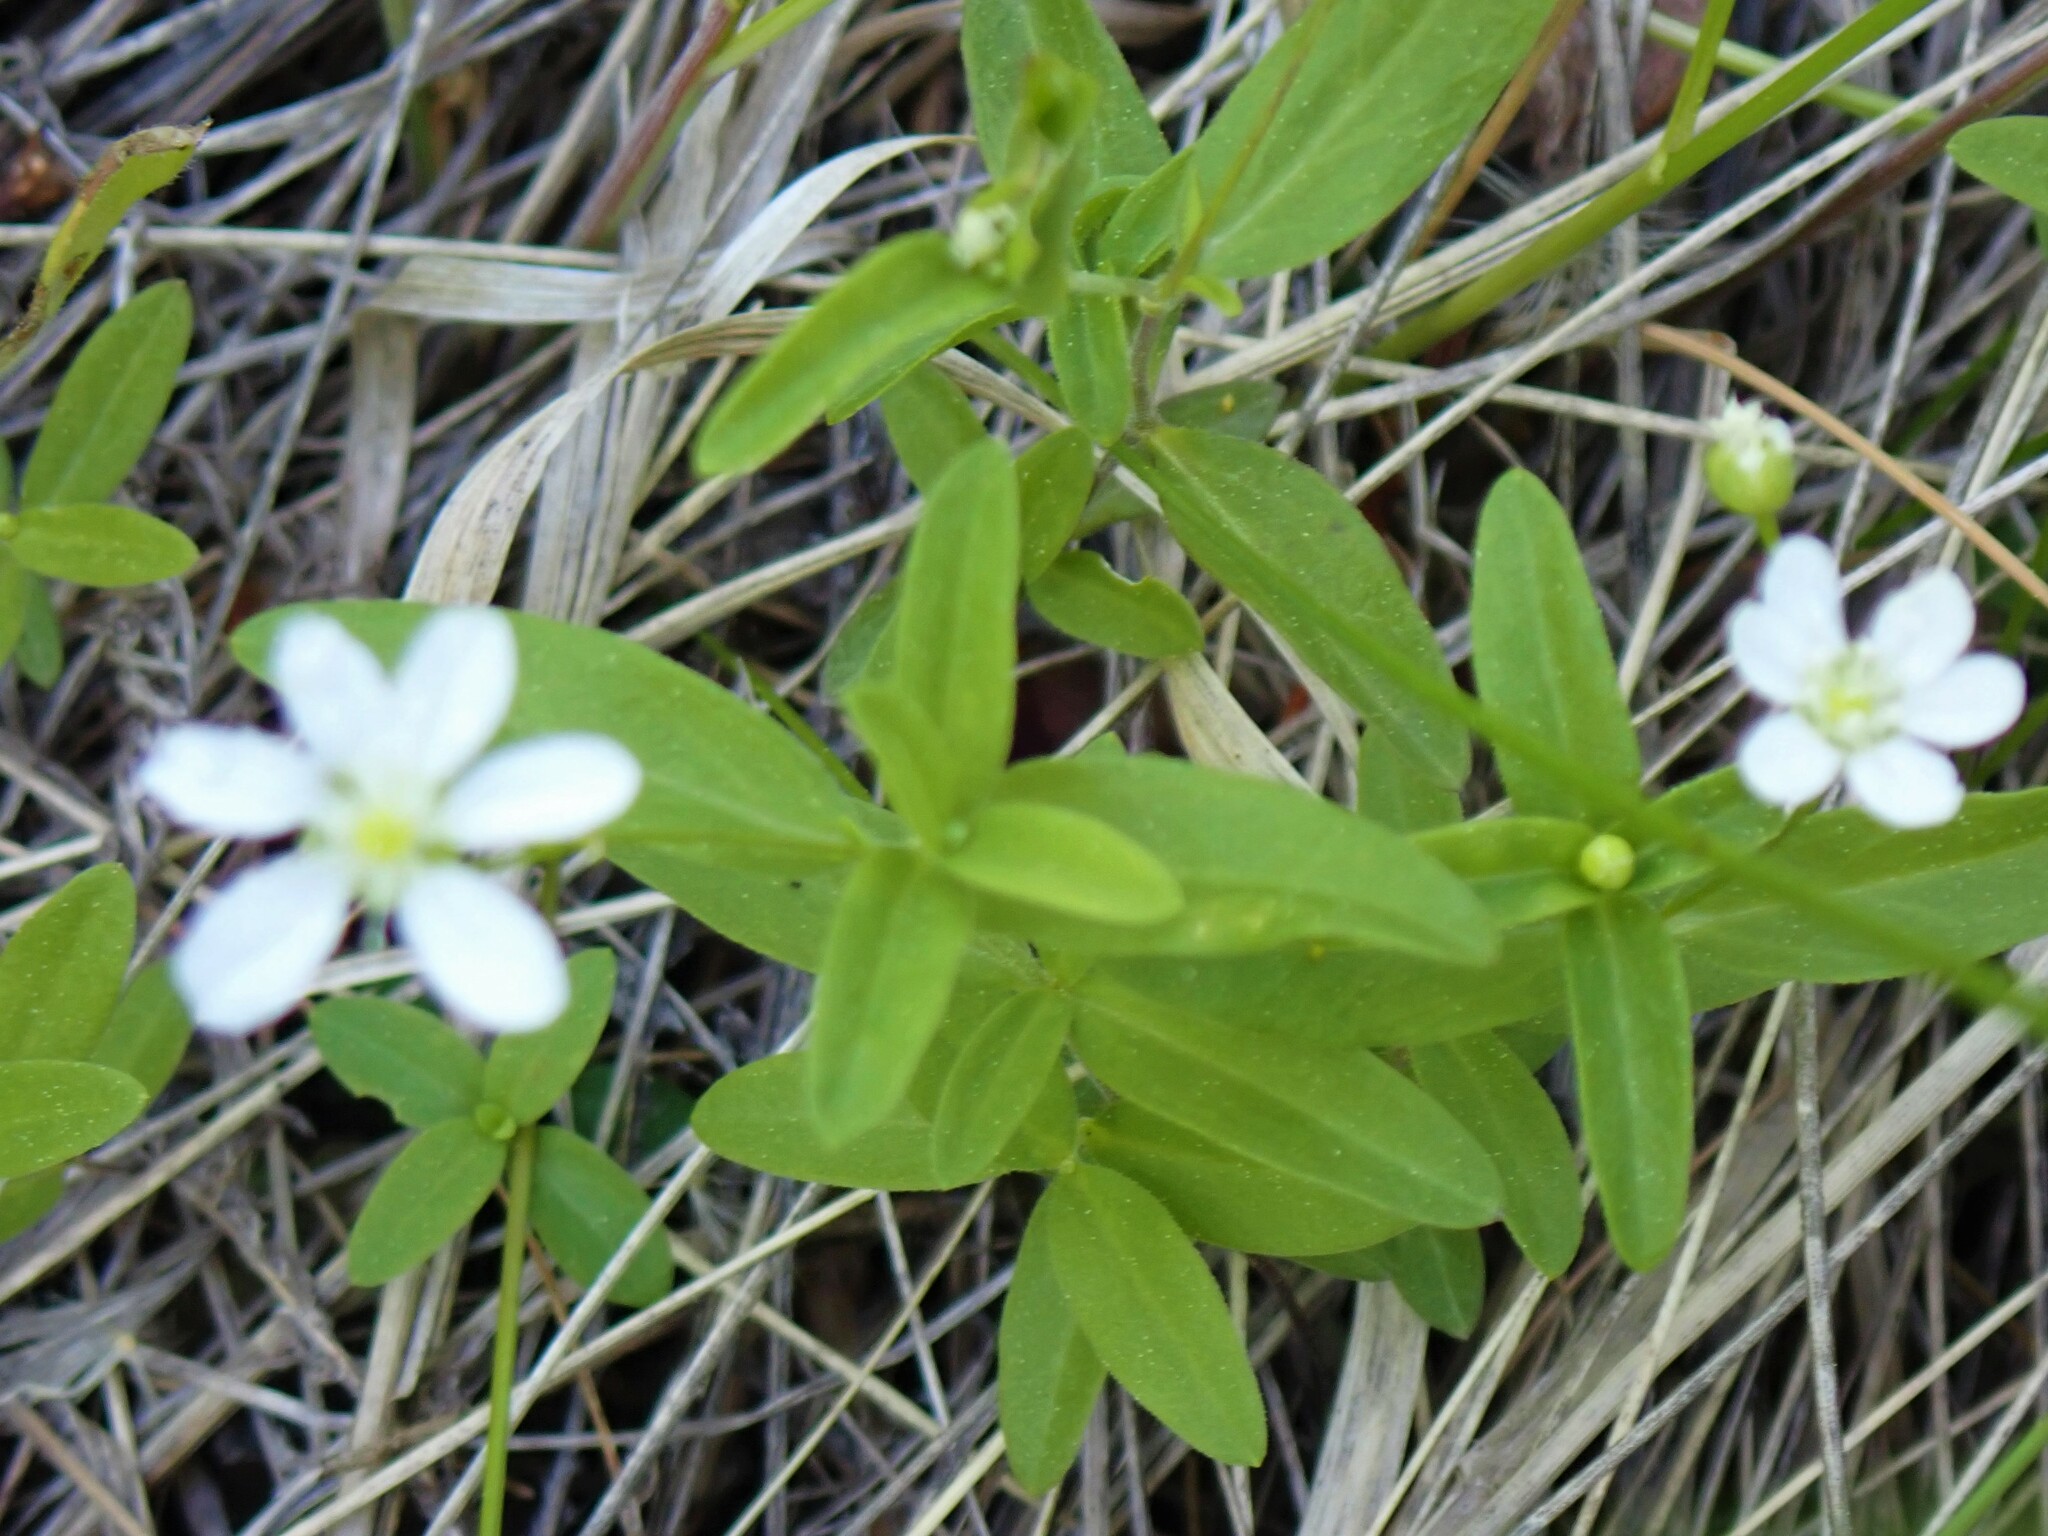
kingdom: Plantae
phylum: Tracheophyta
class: Magnoliopsida
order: Caryophyllales
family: Caryophyllaceae
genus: Moehringia
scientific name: Moehringia lateriflora
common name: Blunt-leaved sandwort
